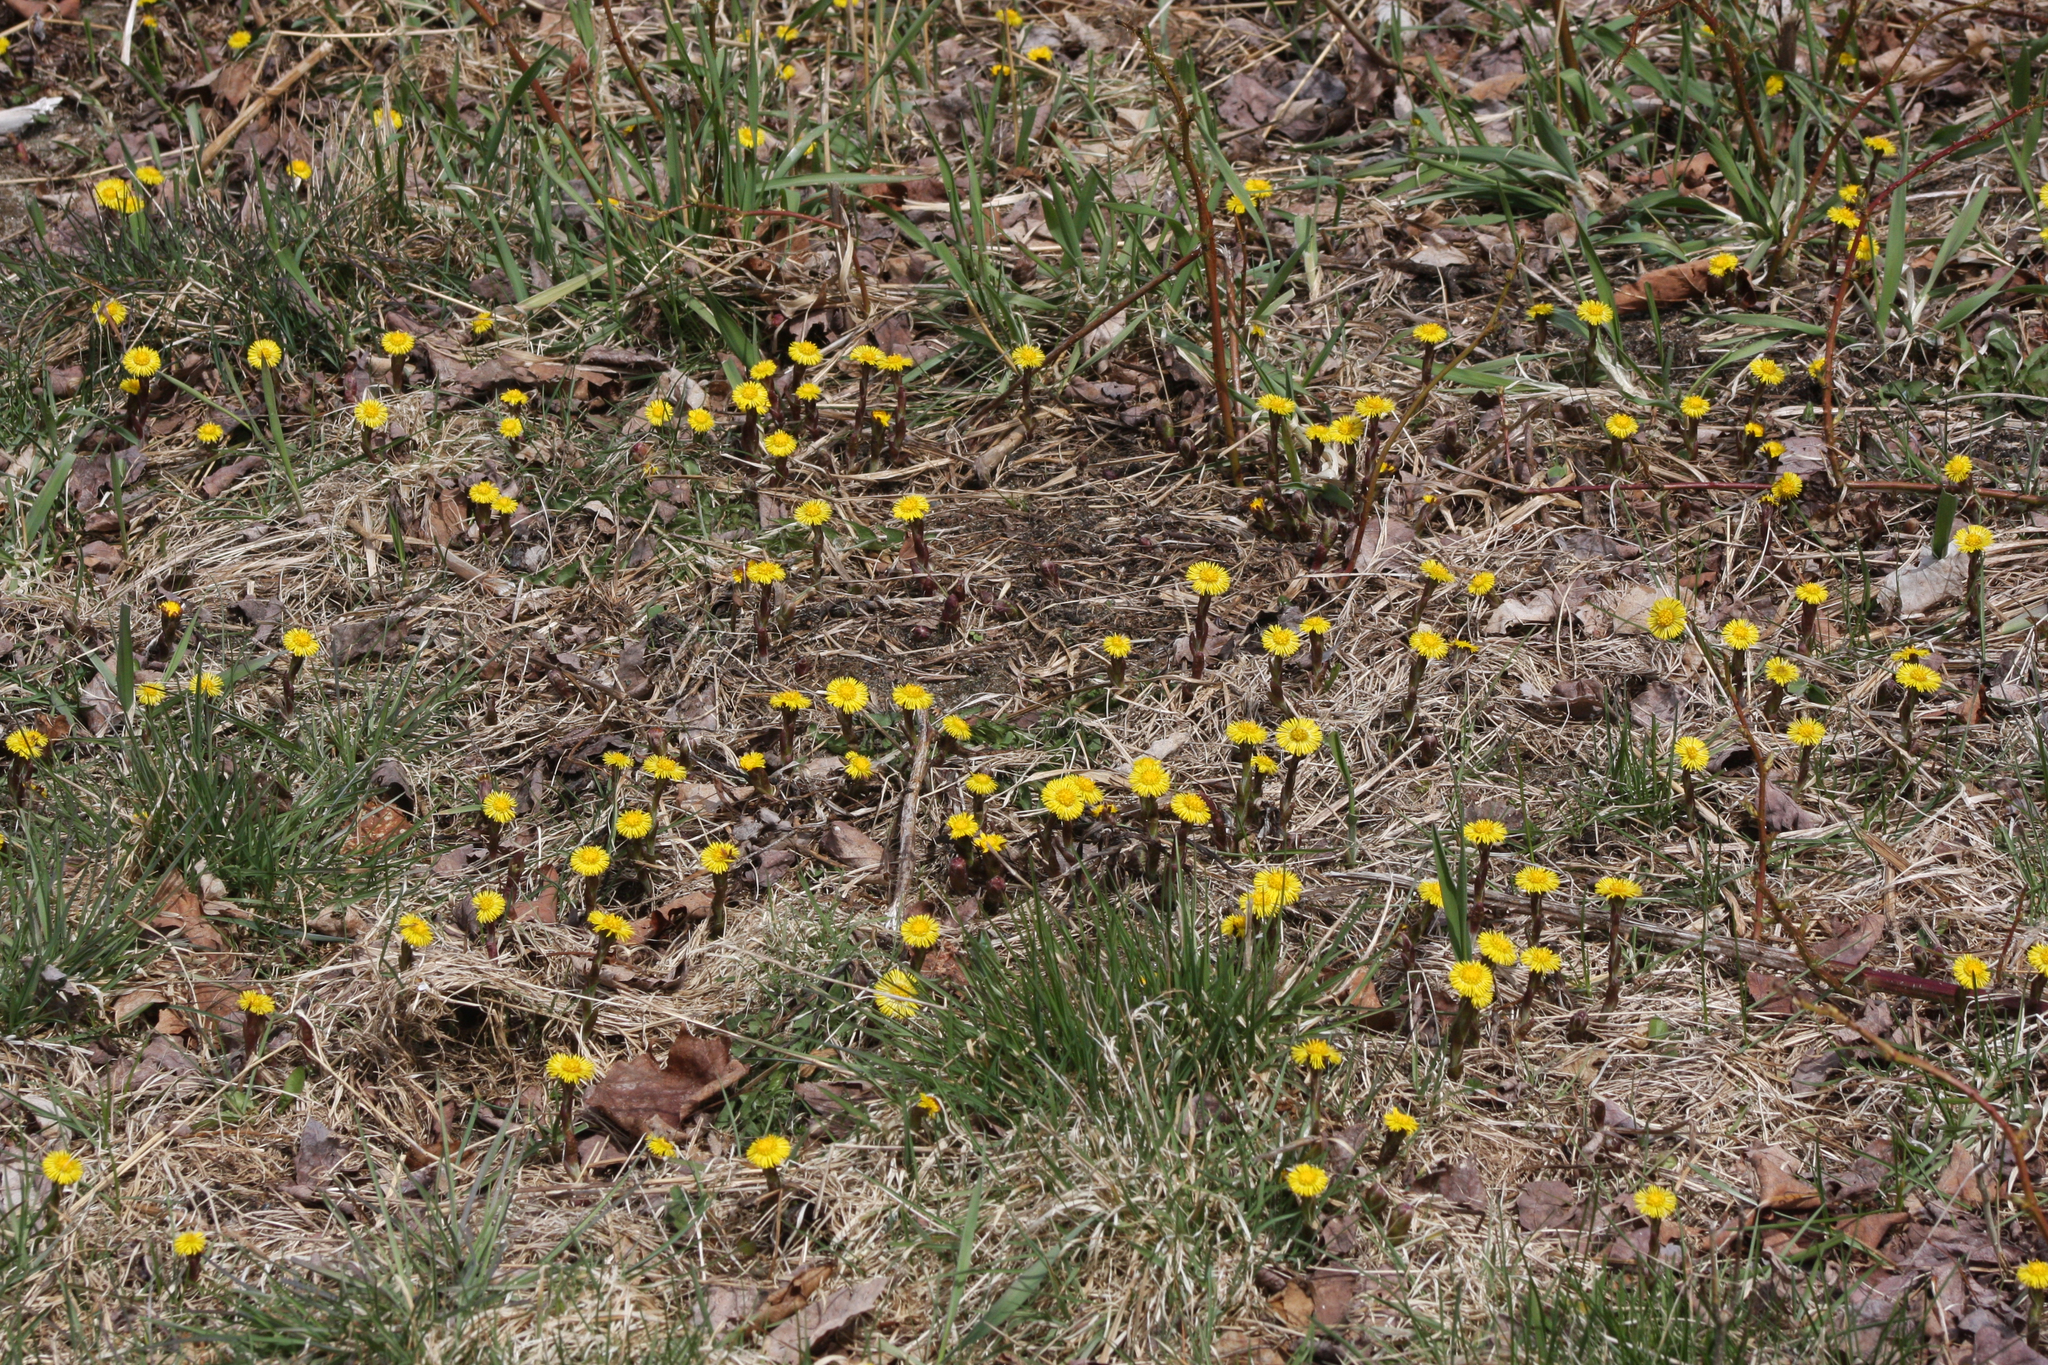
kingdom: Plantae
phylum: Tracheophyta
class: Magnoliopsida
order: Asterales
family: Asteraceae
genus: Tussilago
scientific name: Tussilago farfara
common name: Coltsfoot
